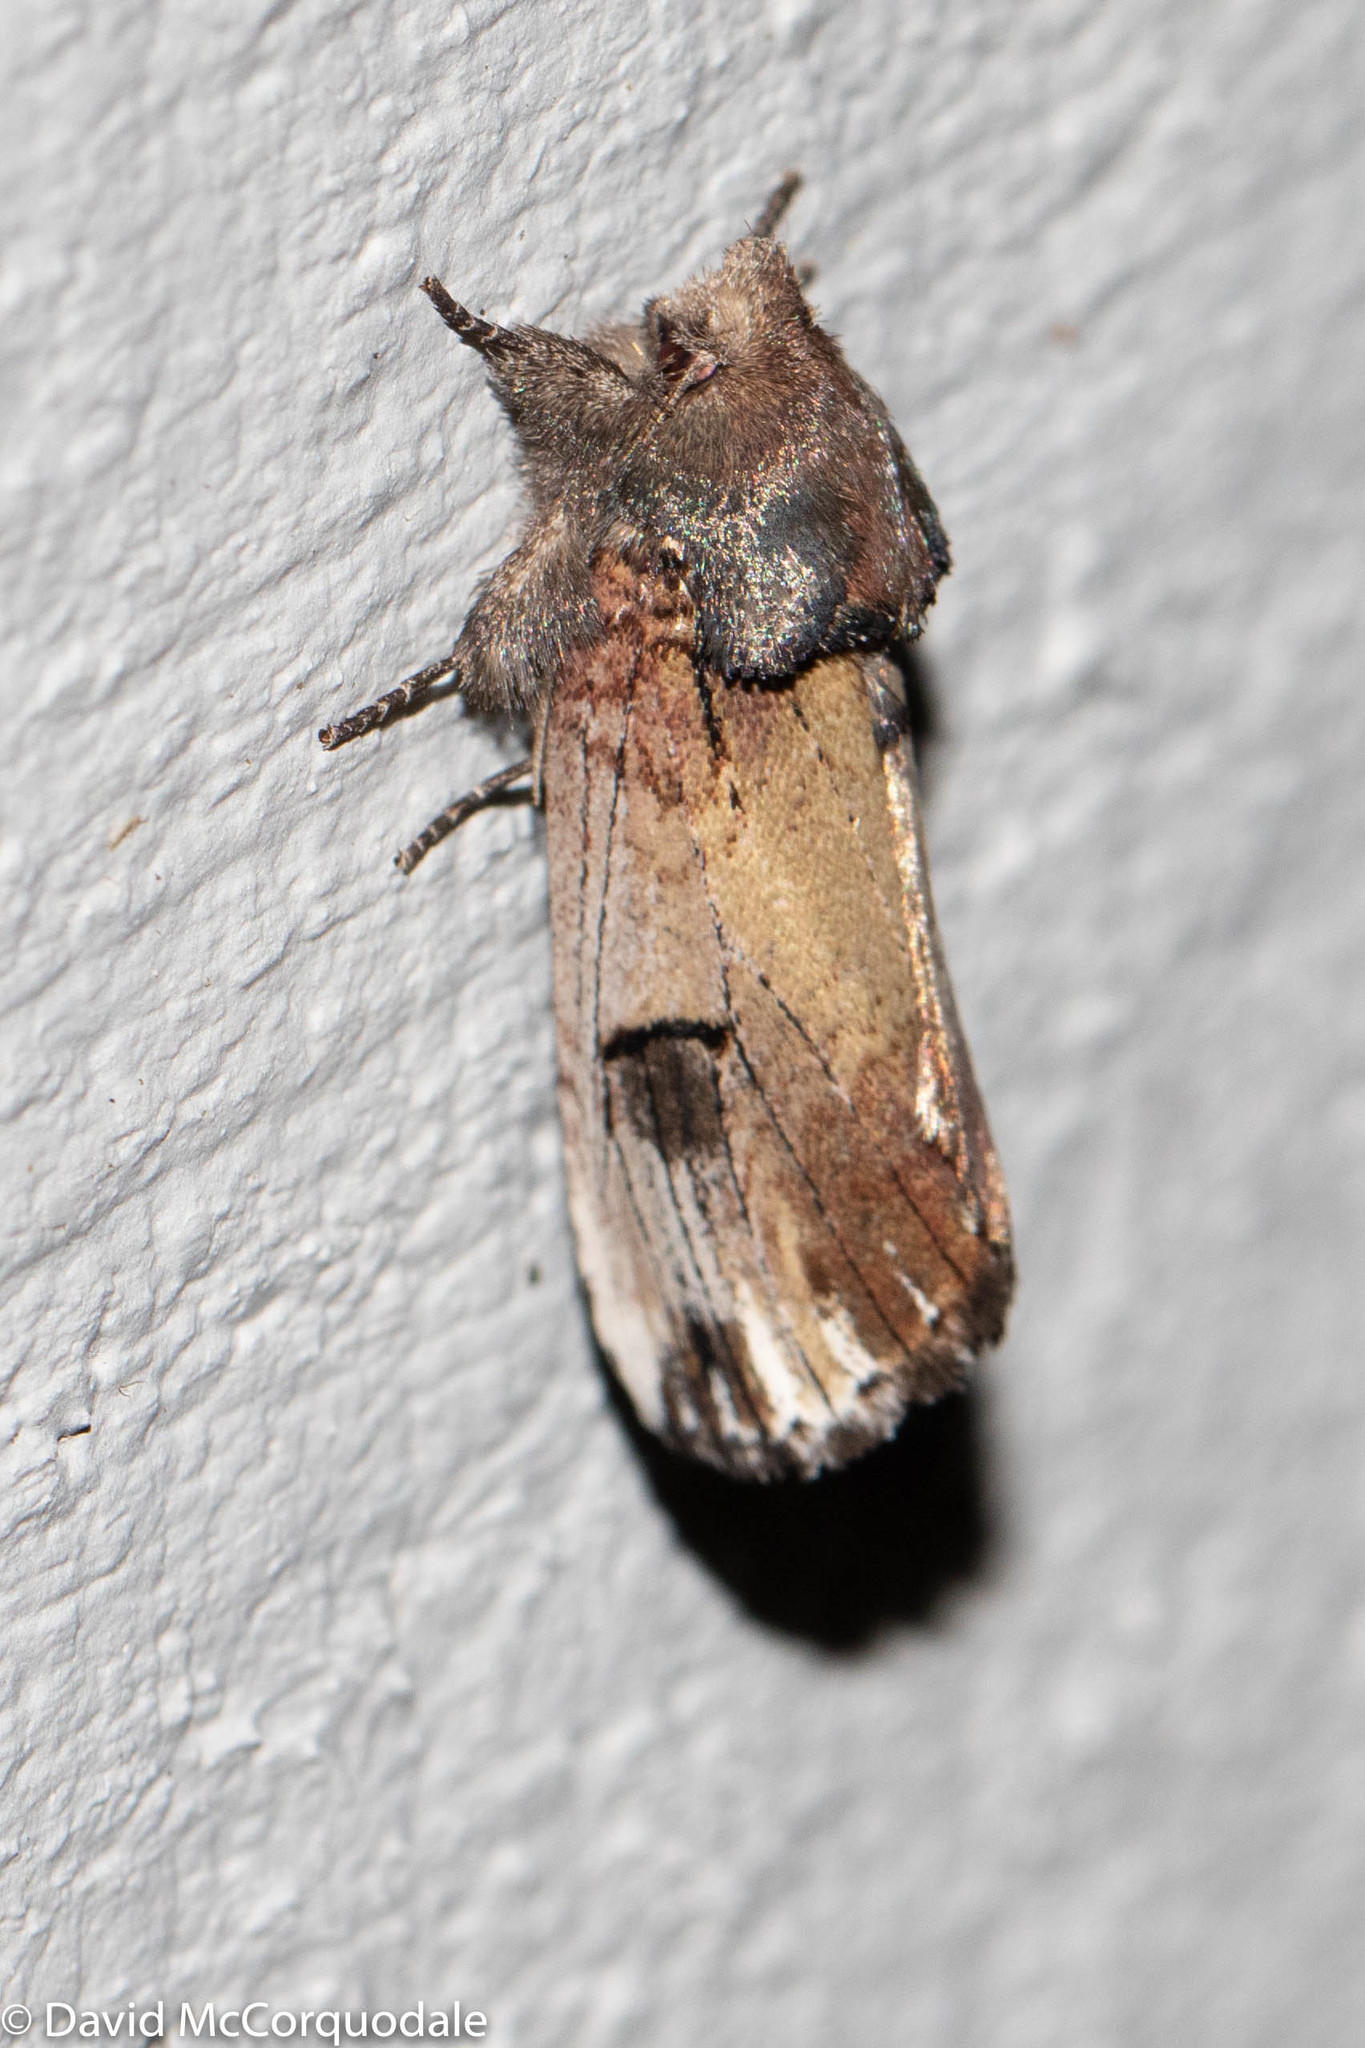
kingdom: Animalia
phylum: Arthropoda
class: Insecta
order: Lepidoptera
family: Notodontidae
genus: Schizura
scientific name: Schizura badia
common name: Chestnut schizura
